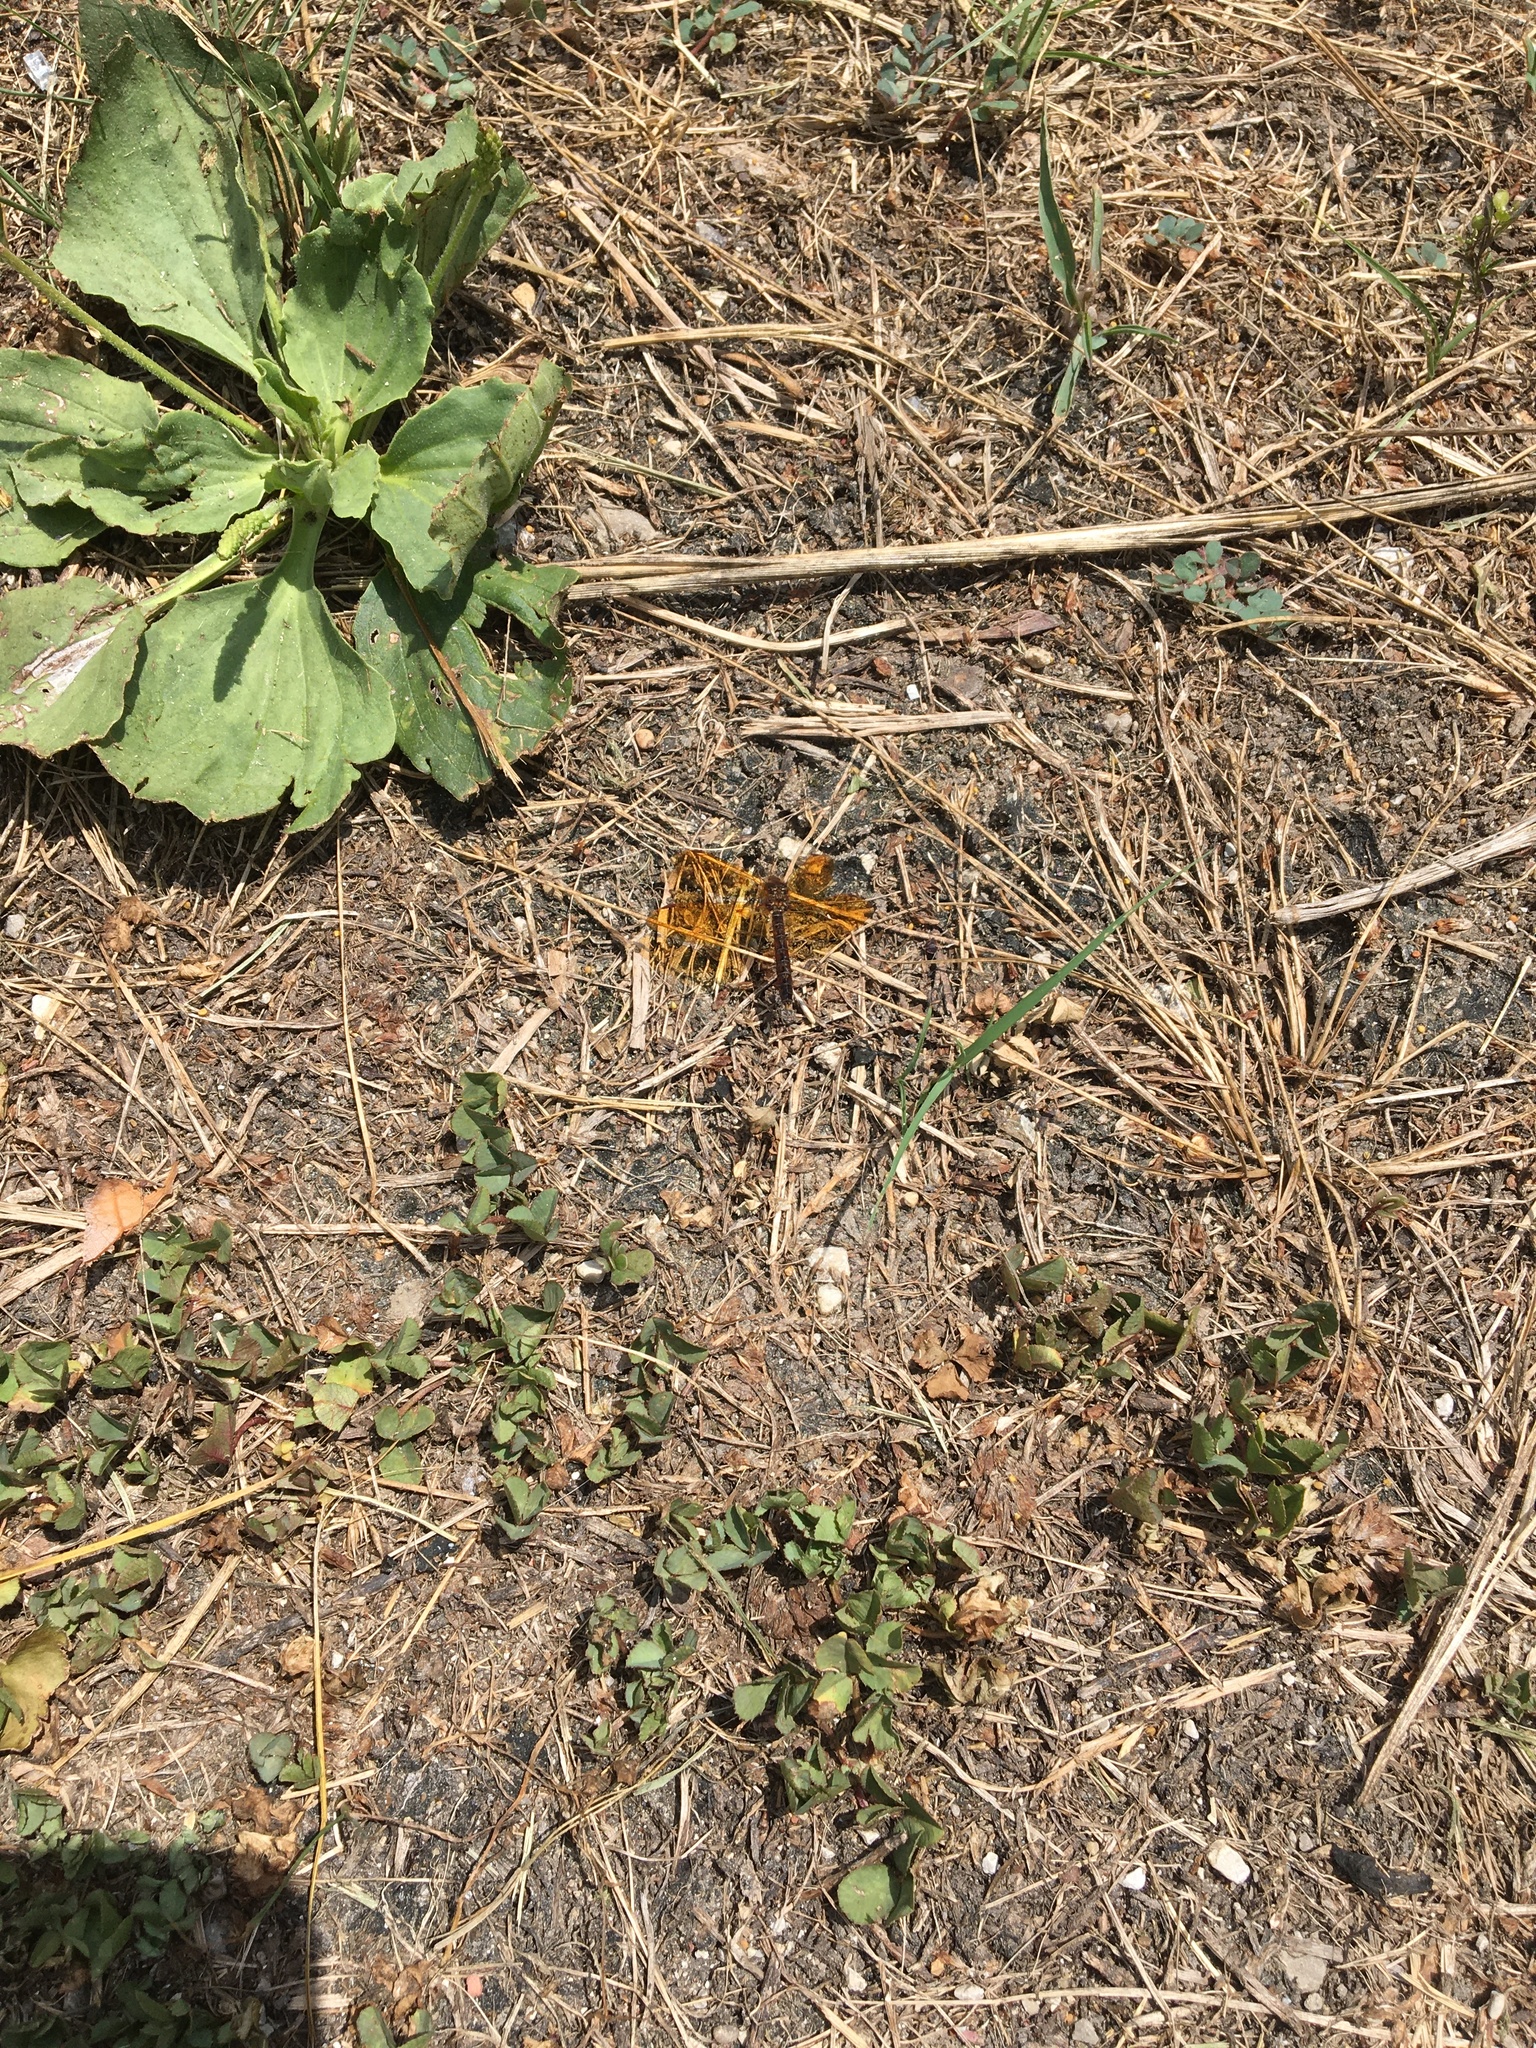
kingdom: Animalia
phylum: Arthropoda
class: Insecta
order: Odonata
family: Libellulidae
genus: Perithemis
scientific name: Perithemis tenera
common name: Eastern amberwing
